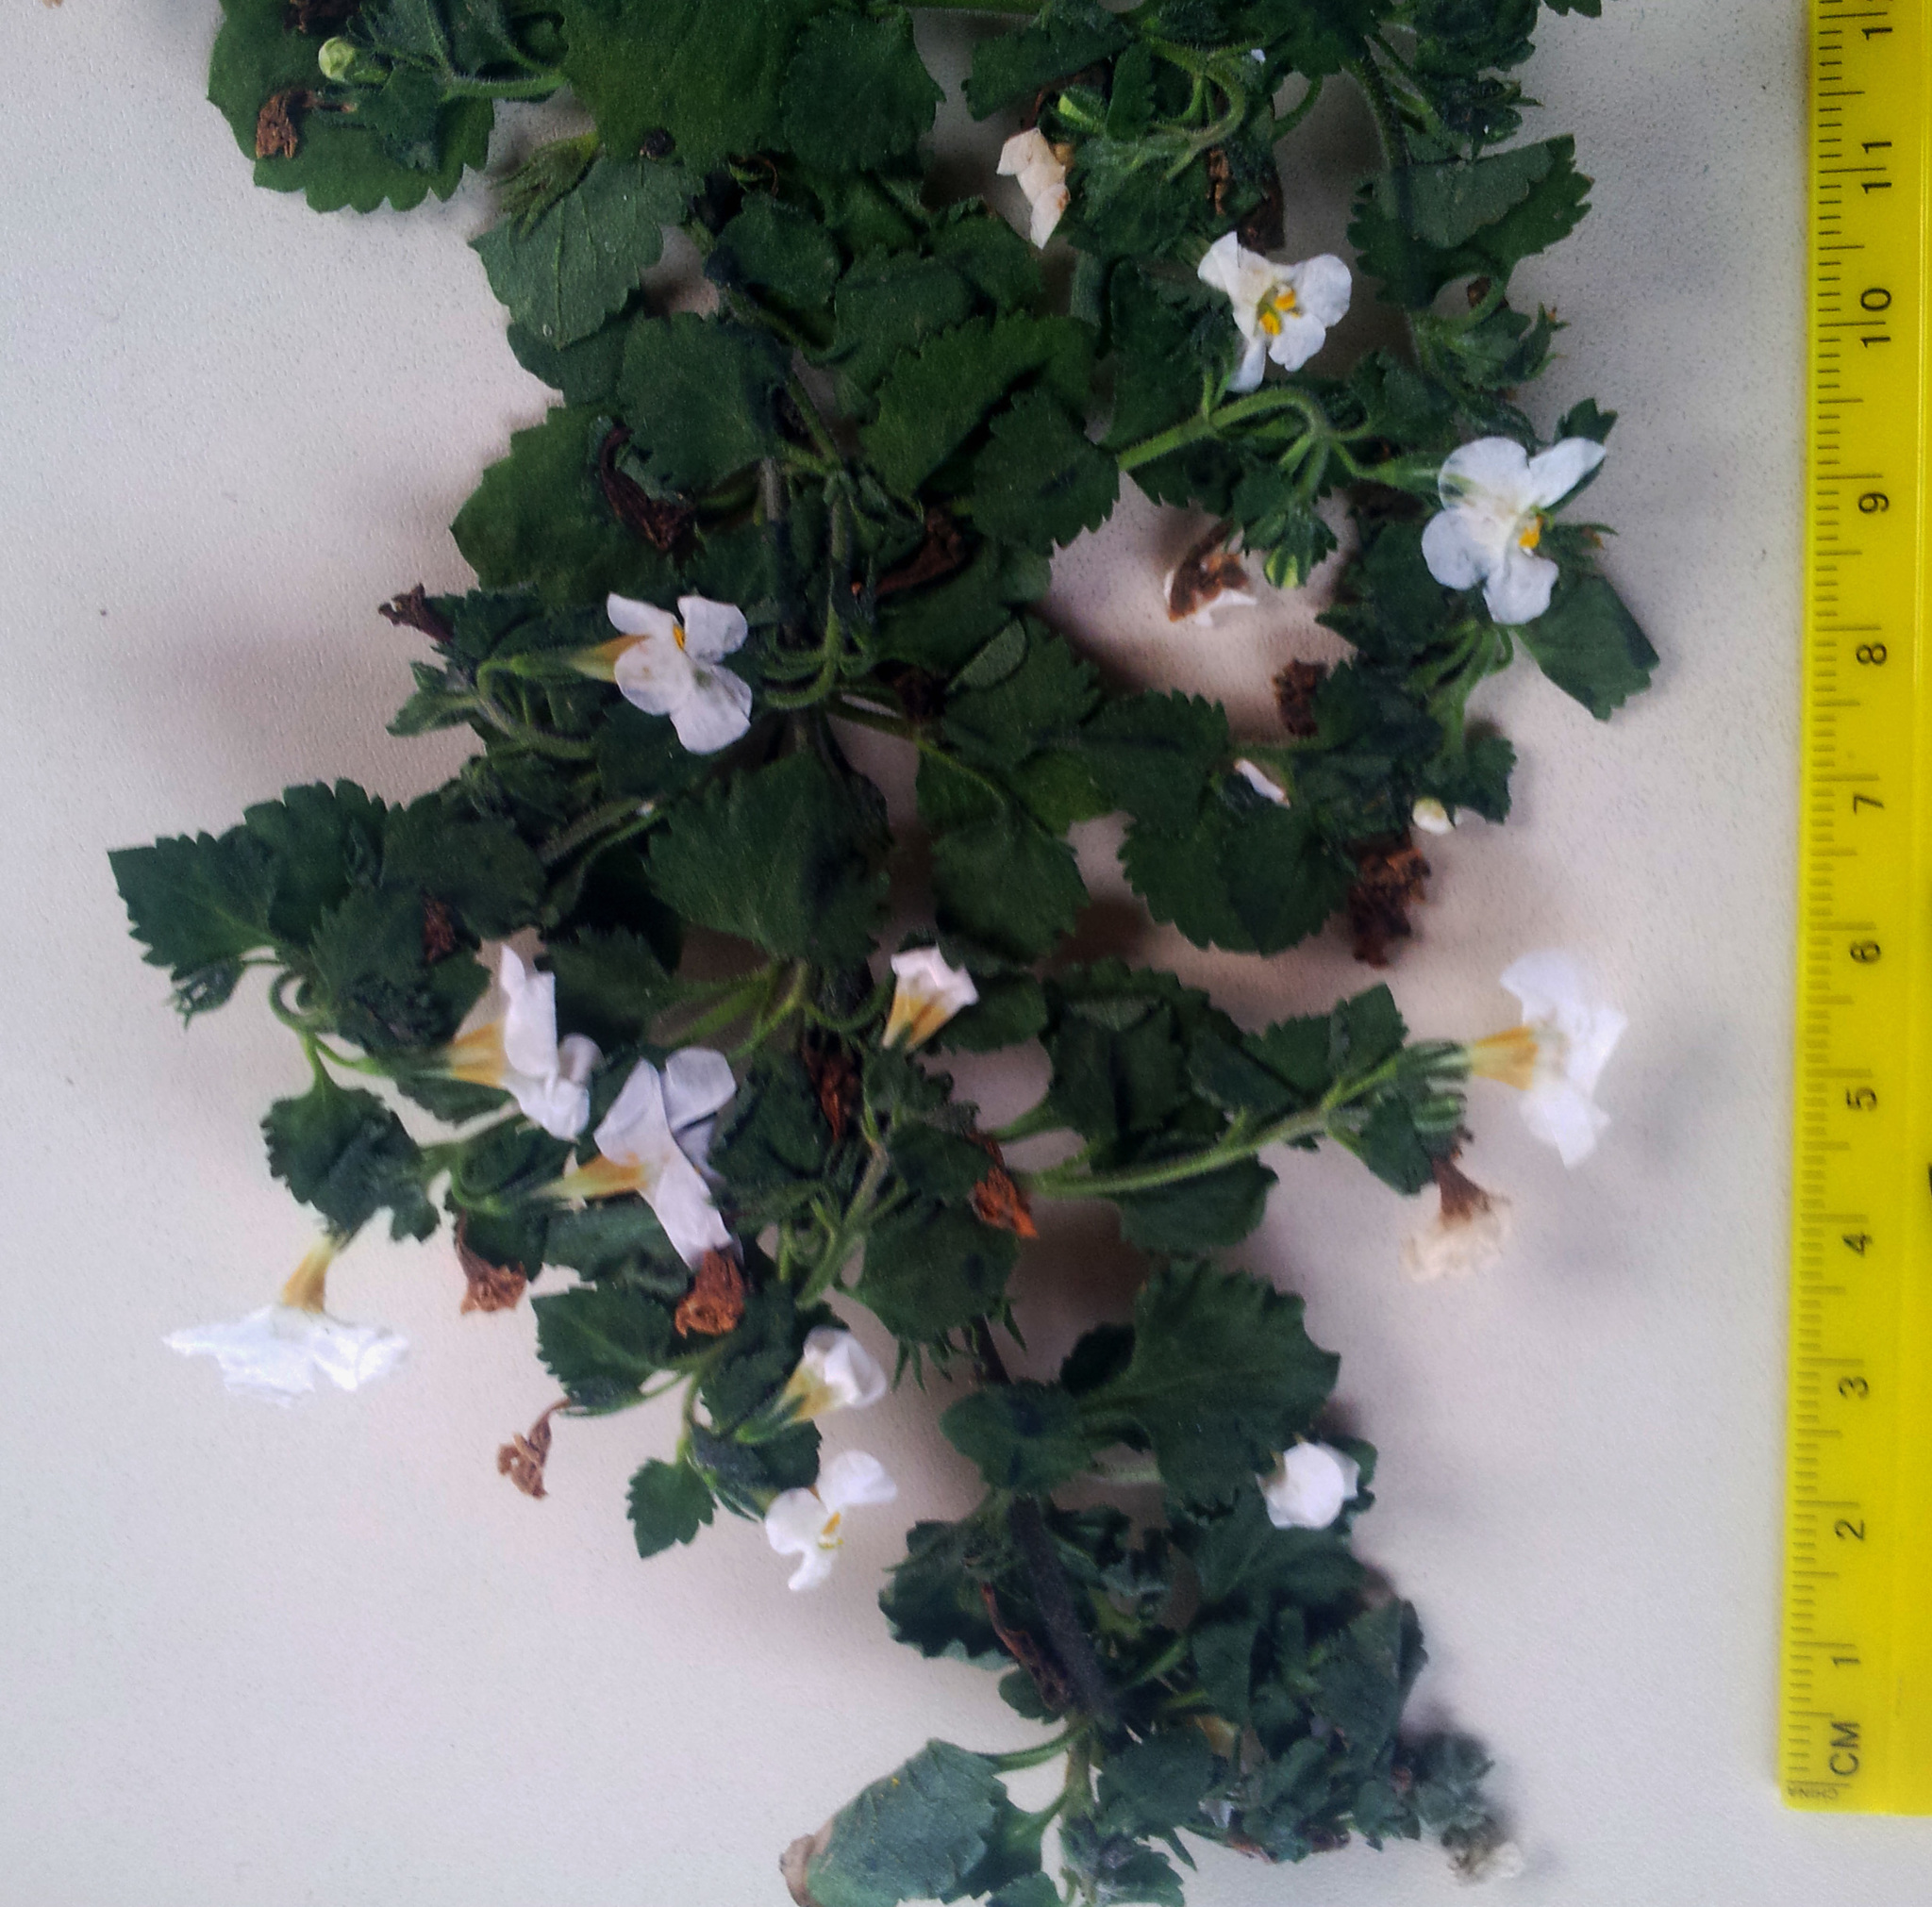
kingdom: Plantae
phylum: Tracheophyta
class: Magnoliopsida
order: Lamiales
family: Scrophulariaceae
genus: Chaenostoma
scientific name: Chaenostoma cordatum
